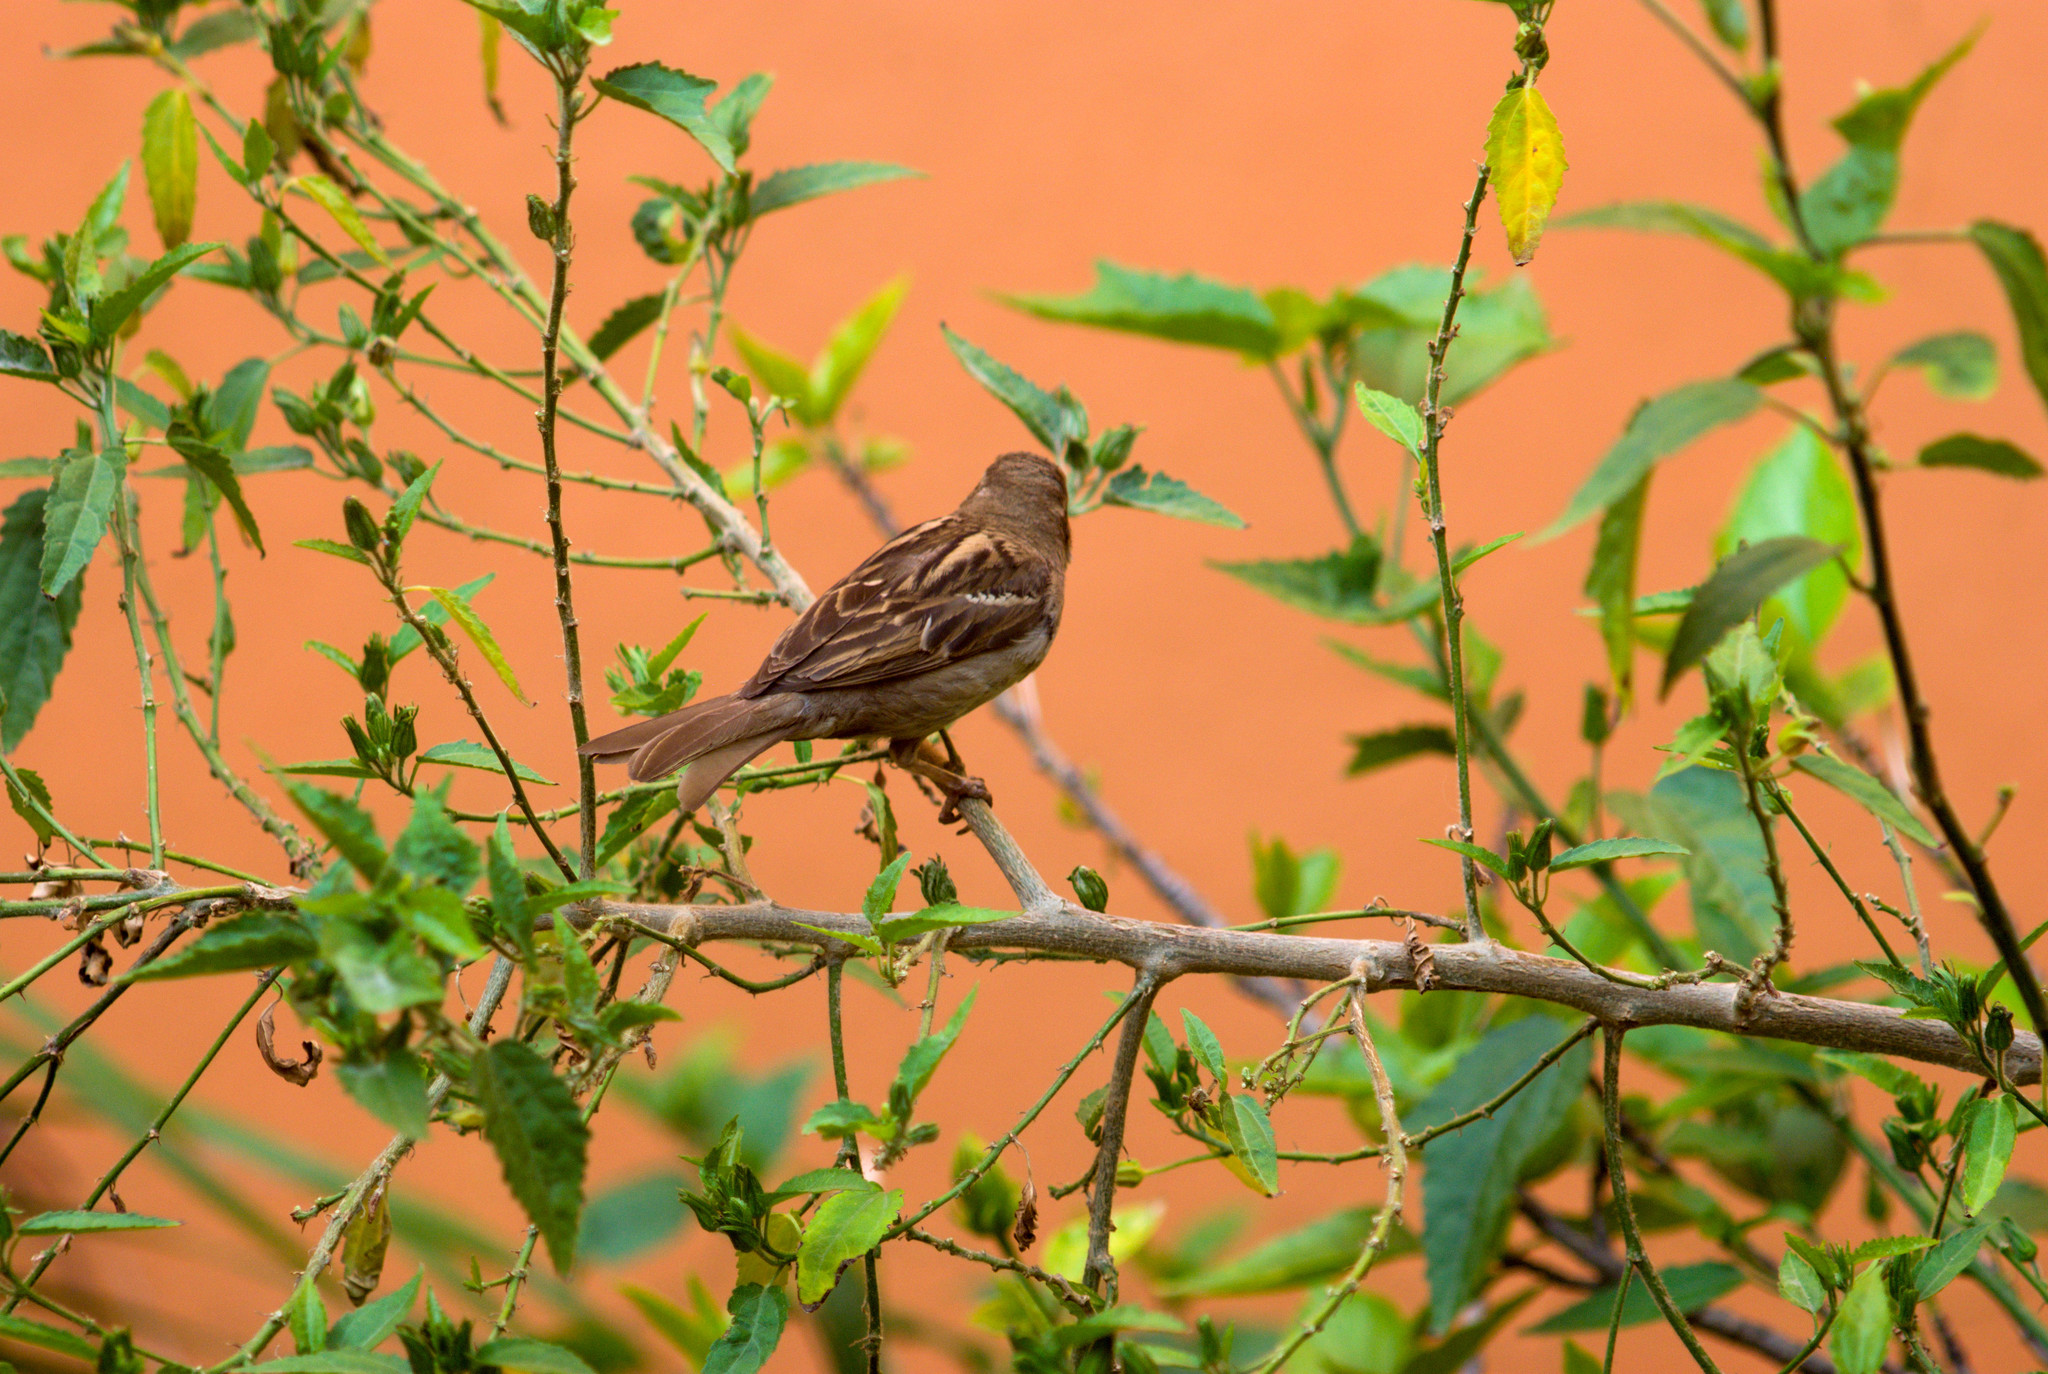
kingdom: Animalia
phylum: Chordata
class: Aves
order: Passeriformes
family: Passeridae
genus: Passer
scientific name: Passer domesticus
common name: House sparrow
